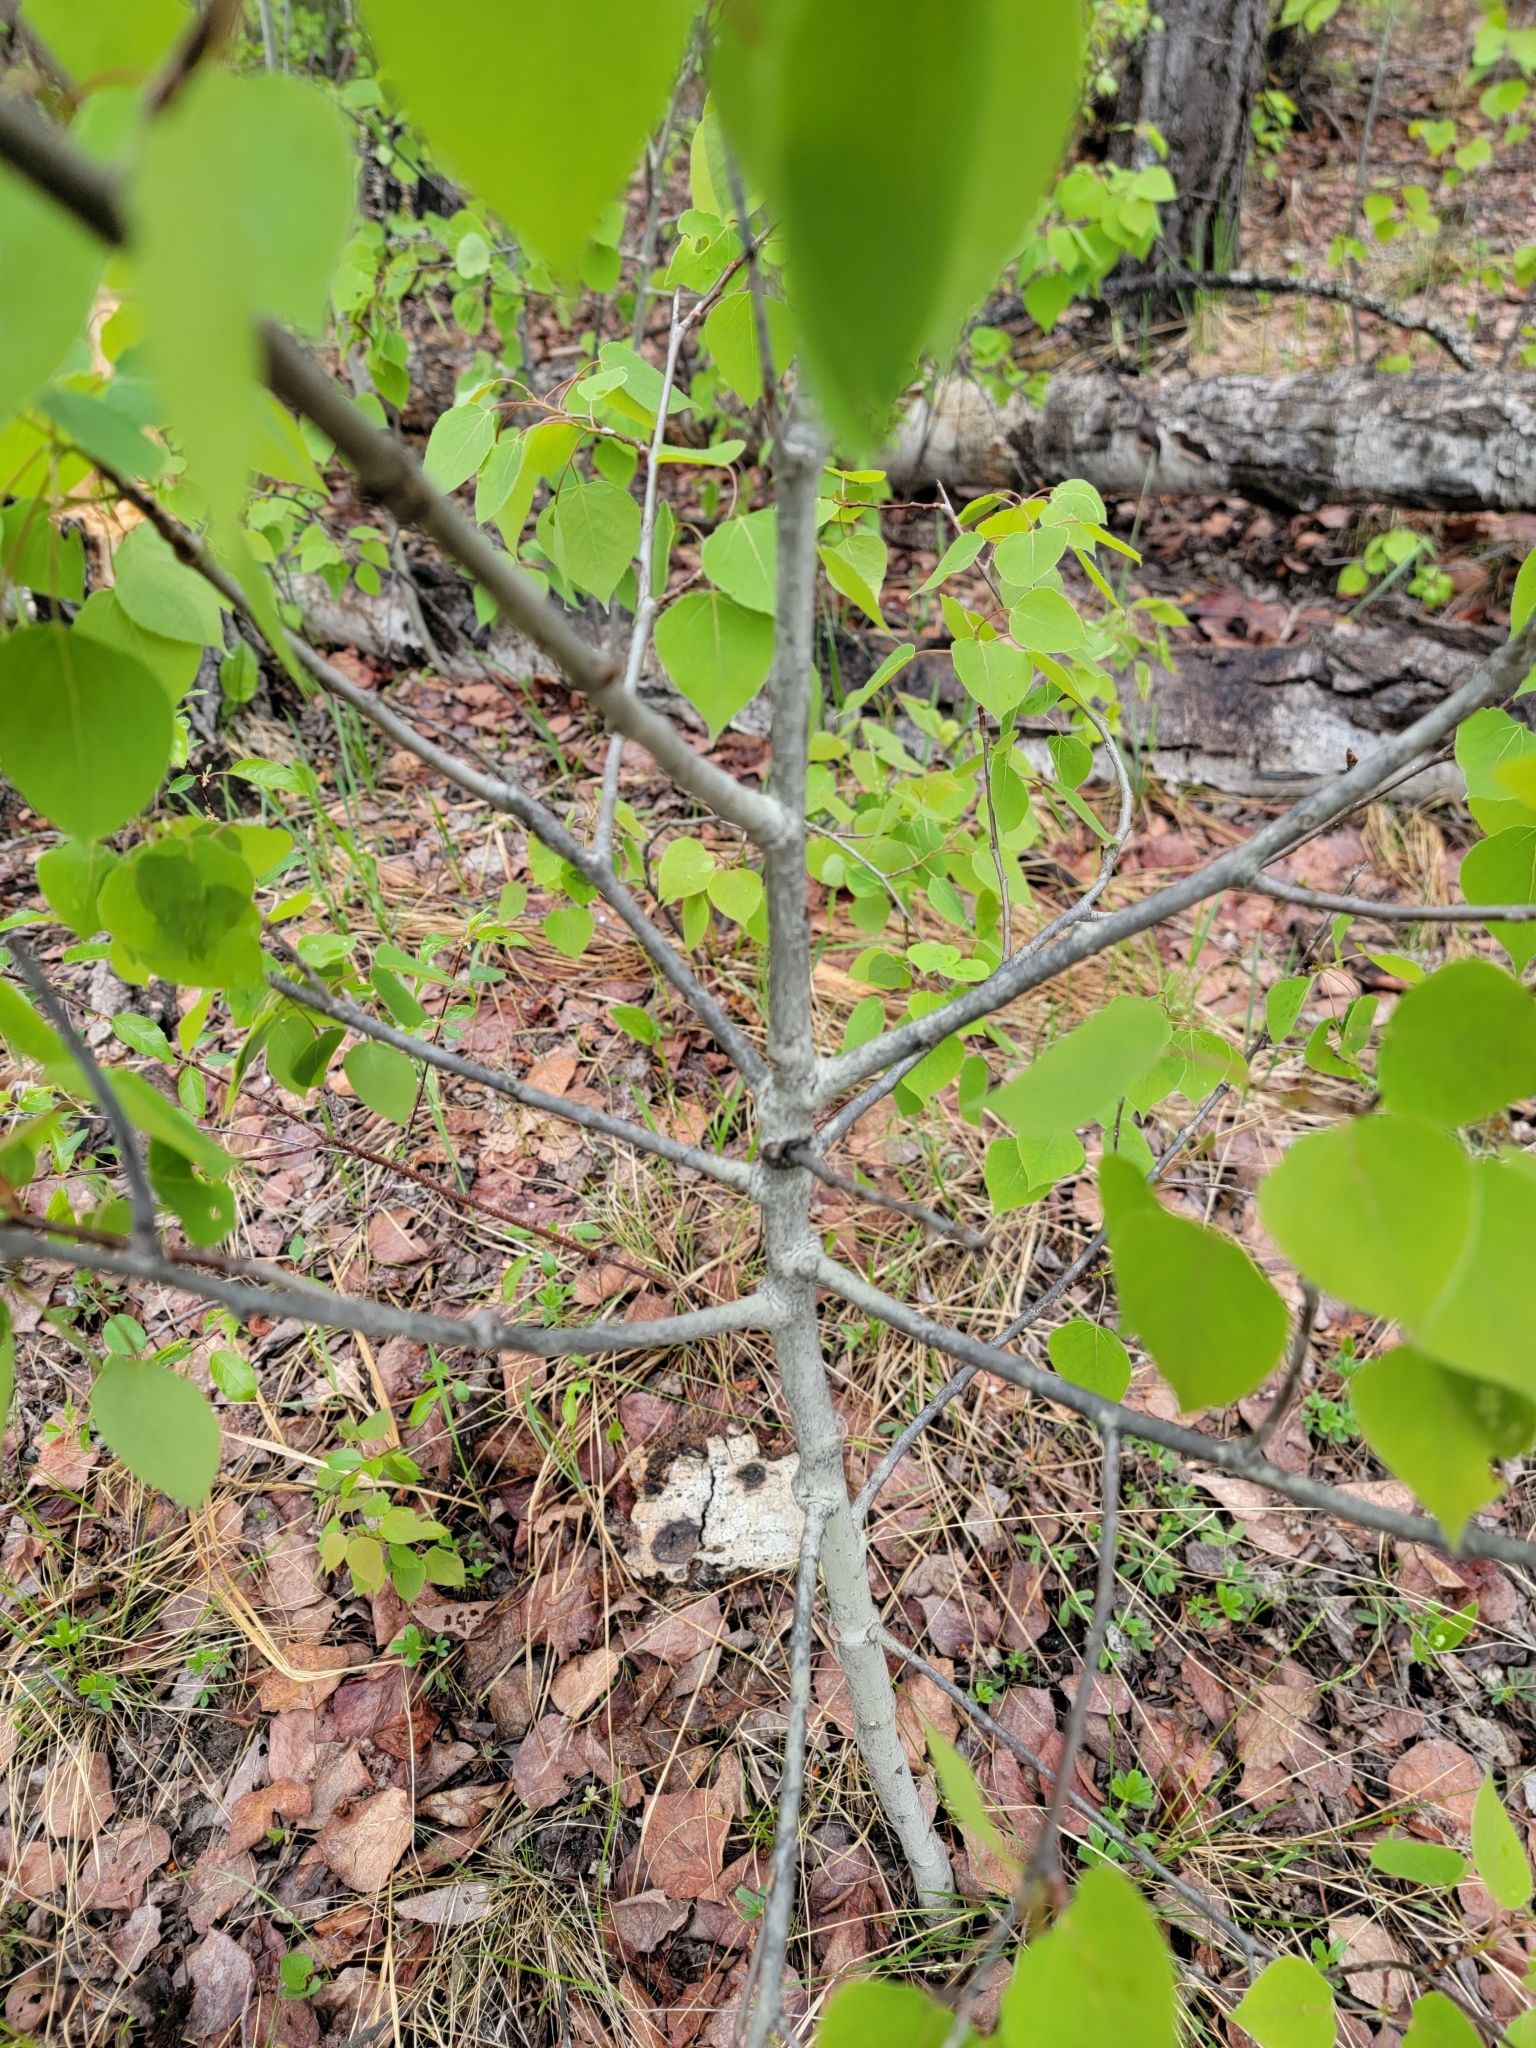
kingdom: Plantae
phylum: Tracheophyta
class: Magnoliopsida
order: Malpighiales
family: Salicaceae
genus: Populus
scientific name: Populus tremuloides
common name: Quaking aspen
